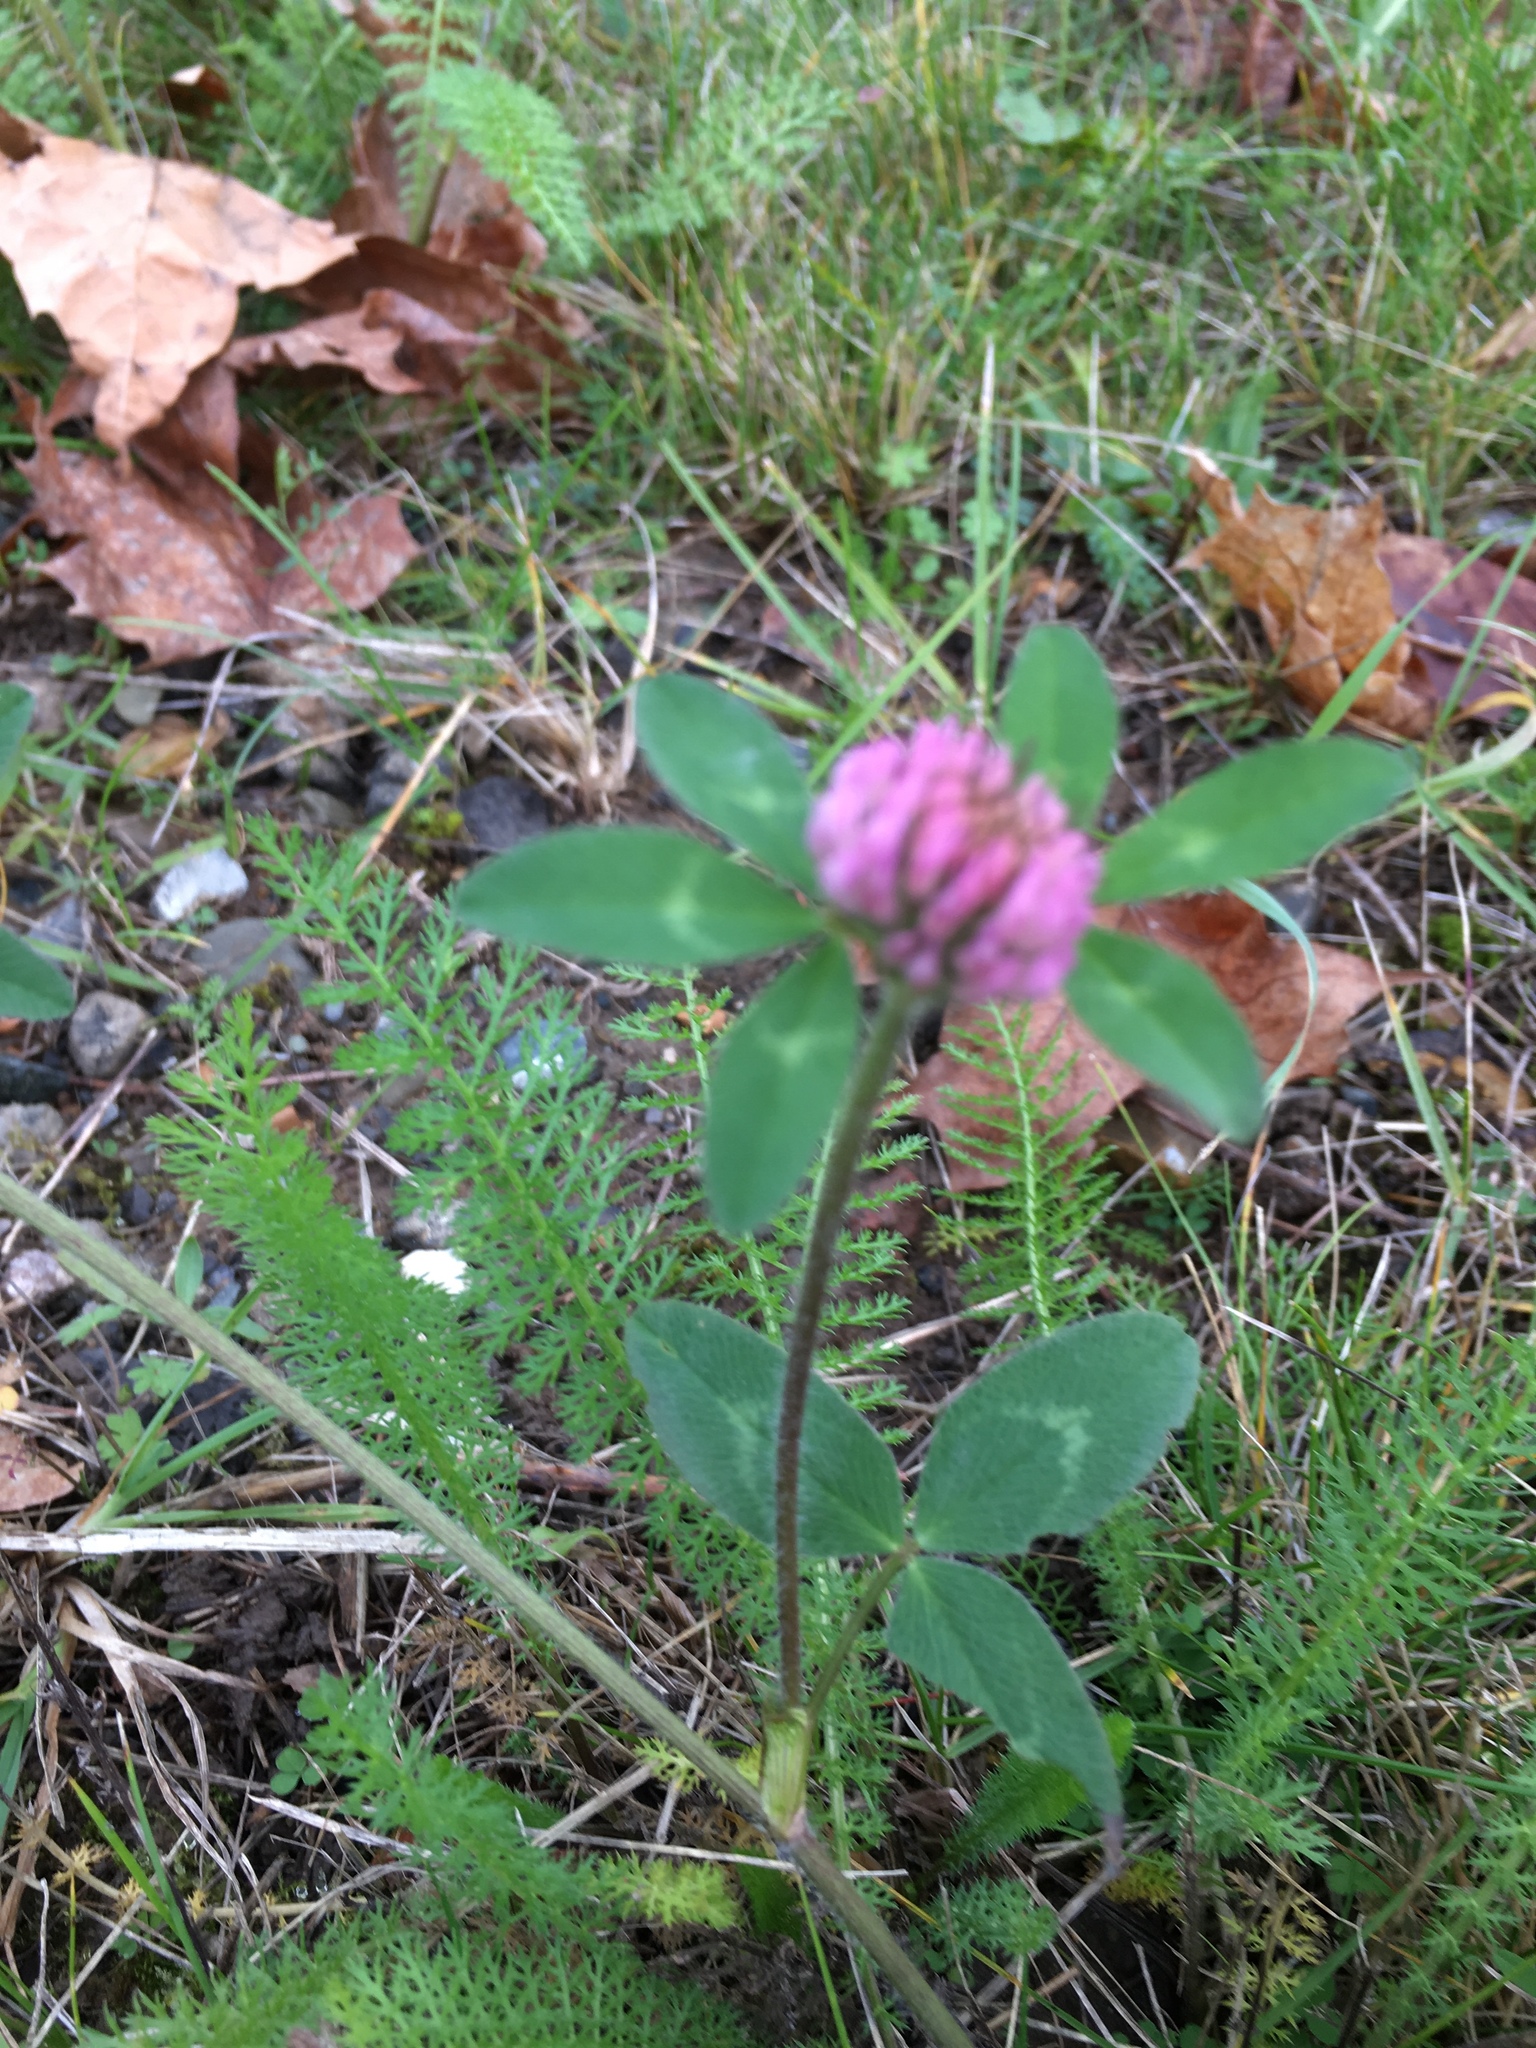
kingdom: Plantae
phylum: Tracheophyta
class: Magnoliopsida
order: Fabales
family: Fabaceae
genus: Trifolium
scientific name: Trifolium pratense
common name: Red clover
